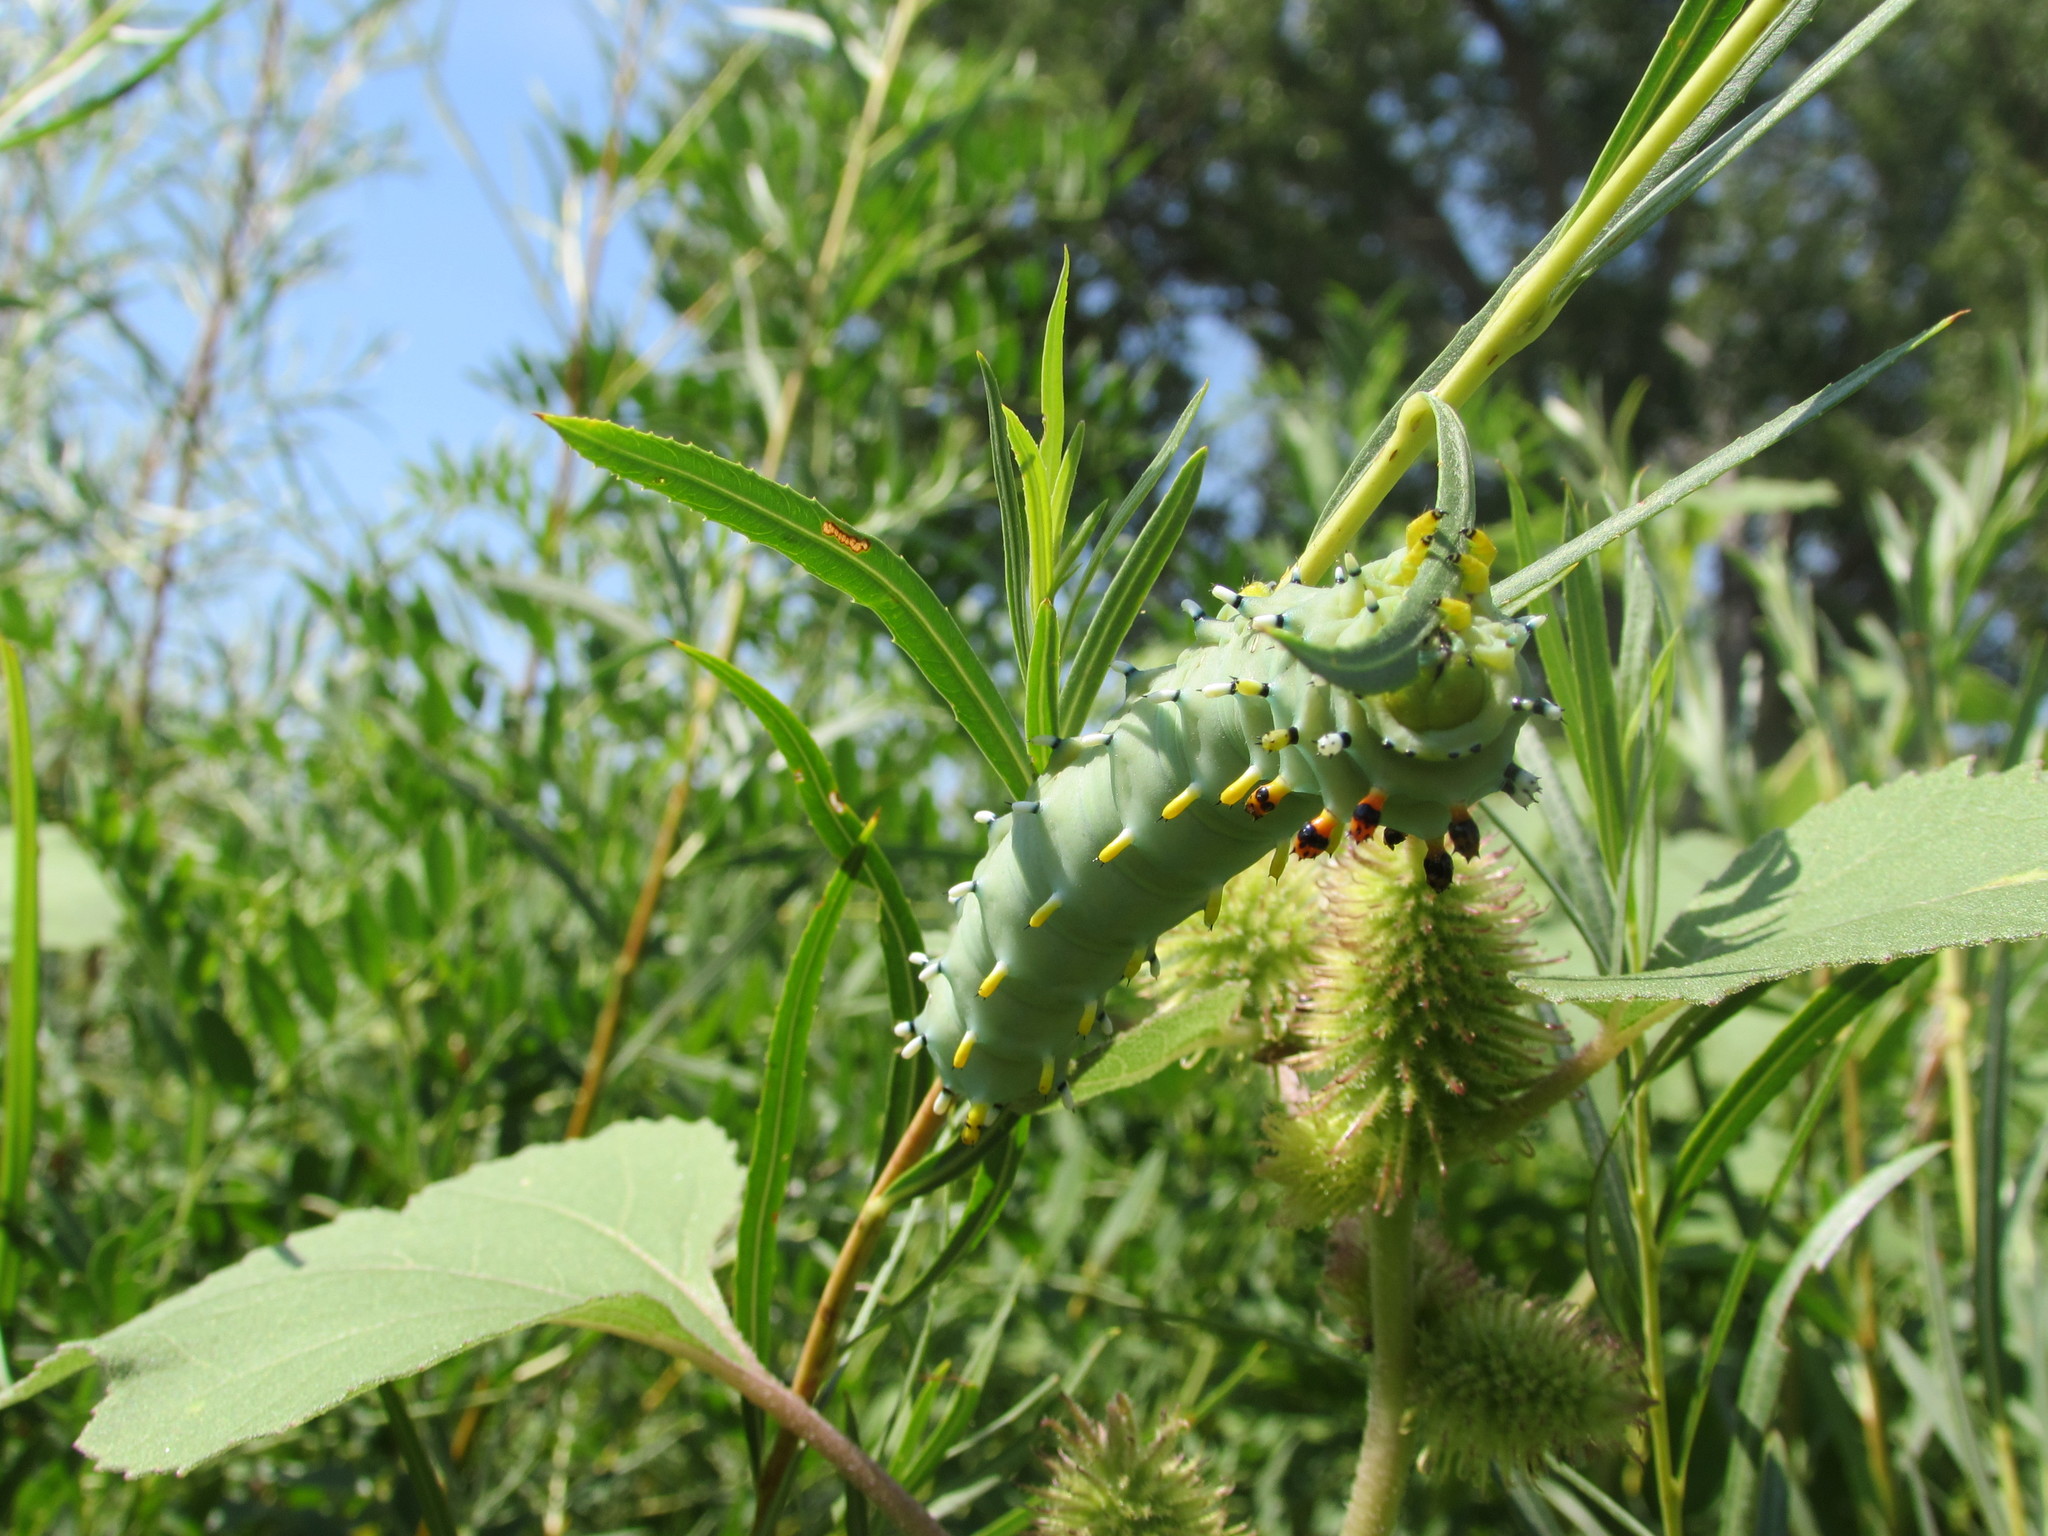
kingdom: Animalia
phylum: Arthropoda
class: Insecta
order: Lepidoptera
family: Saturniidae
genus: Hyalophora
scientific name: Hyalophora gloveri
